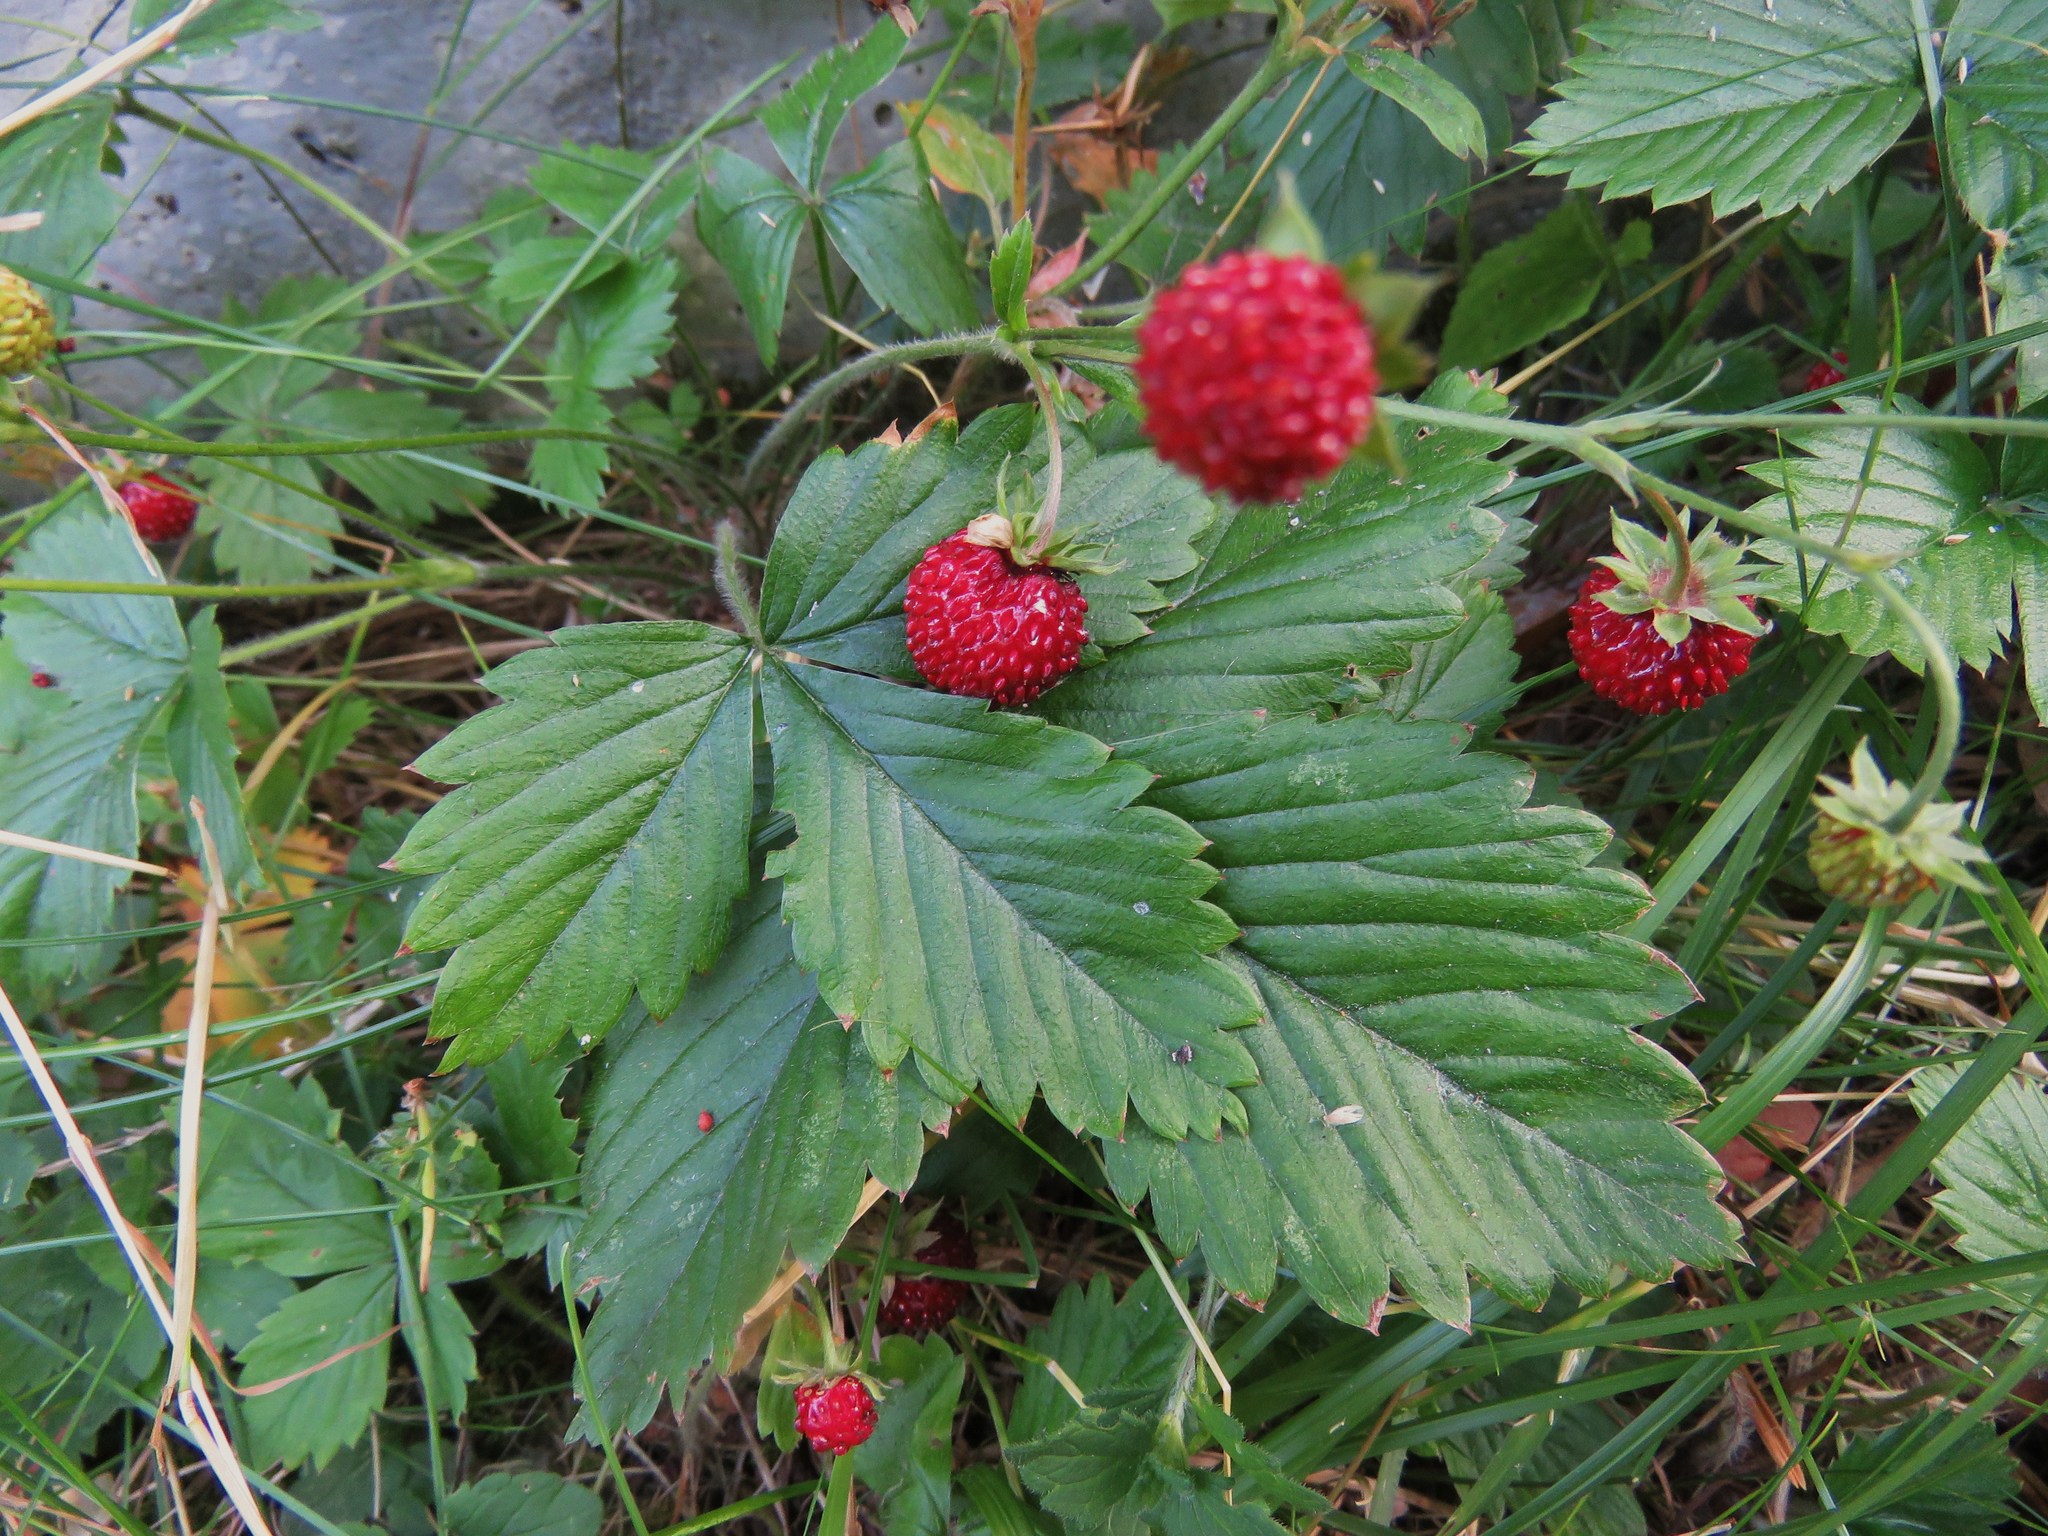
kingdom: Plantae
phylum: Tracheophyta
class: Magnoliopsida
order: Rosales
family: Rosaceae
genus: Fragaria
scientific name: Fragaria vesca
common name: Wild strawberry
